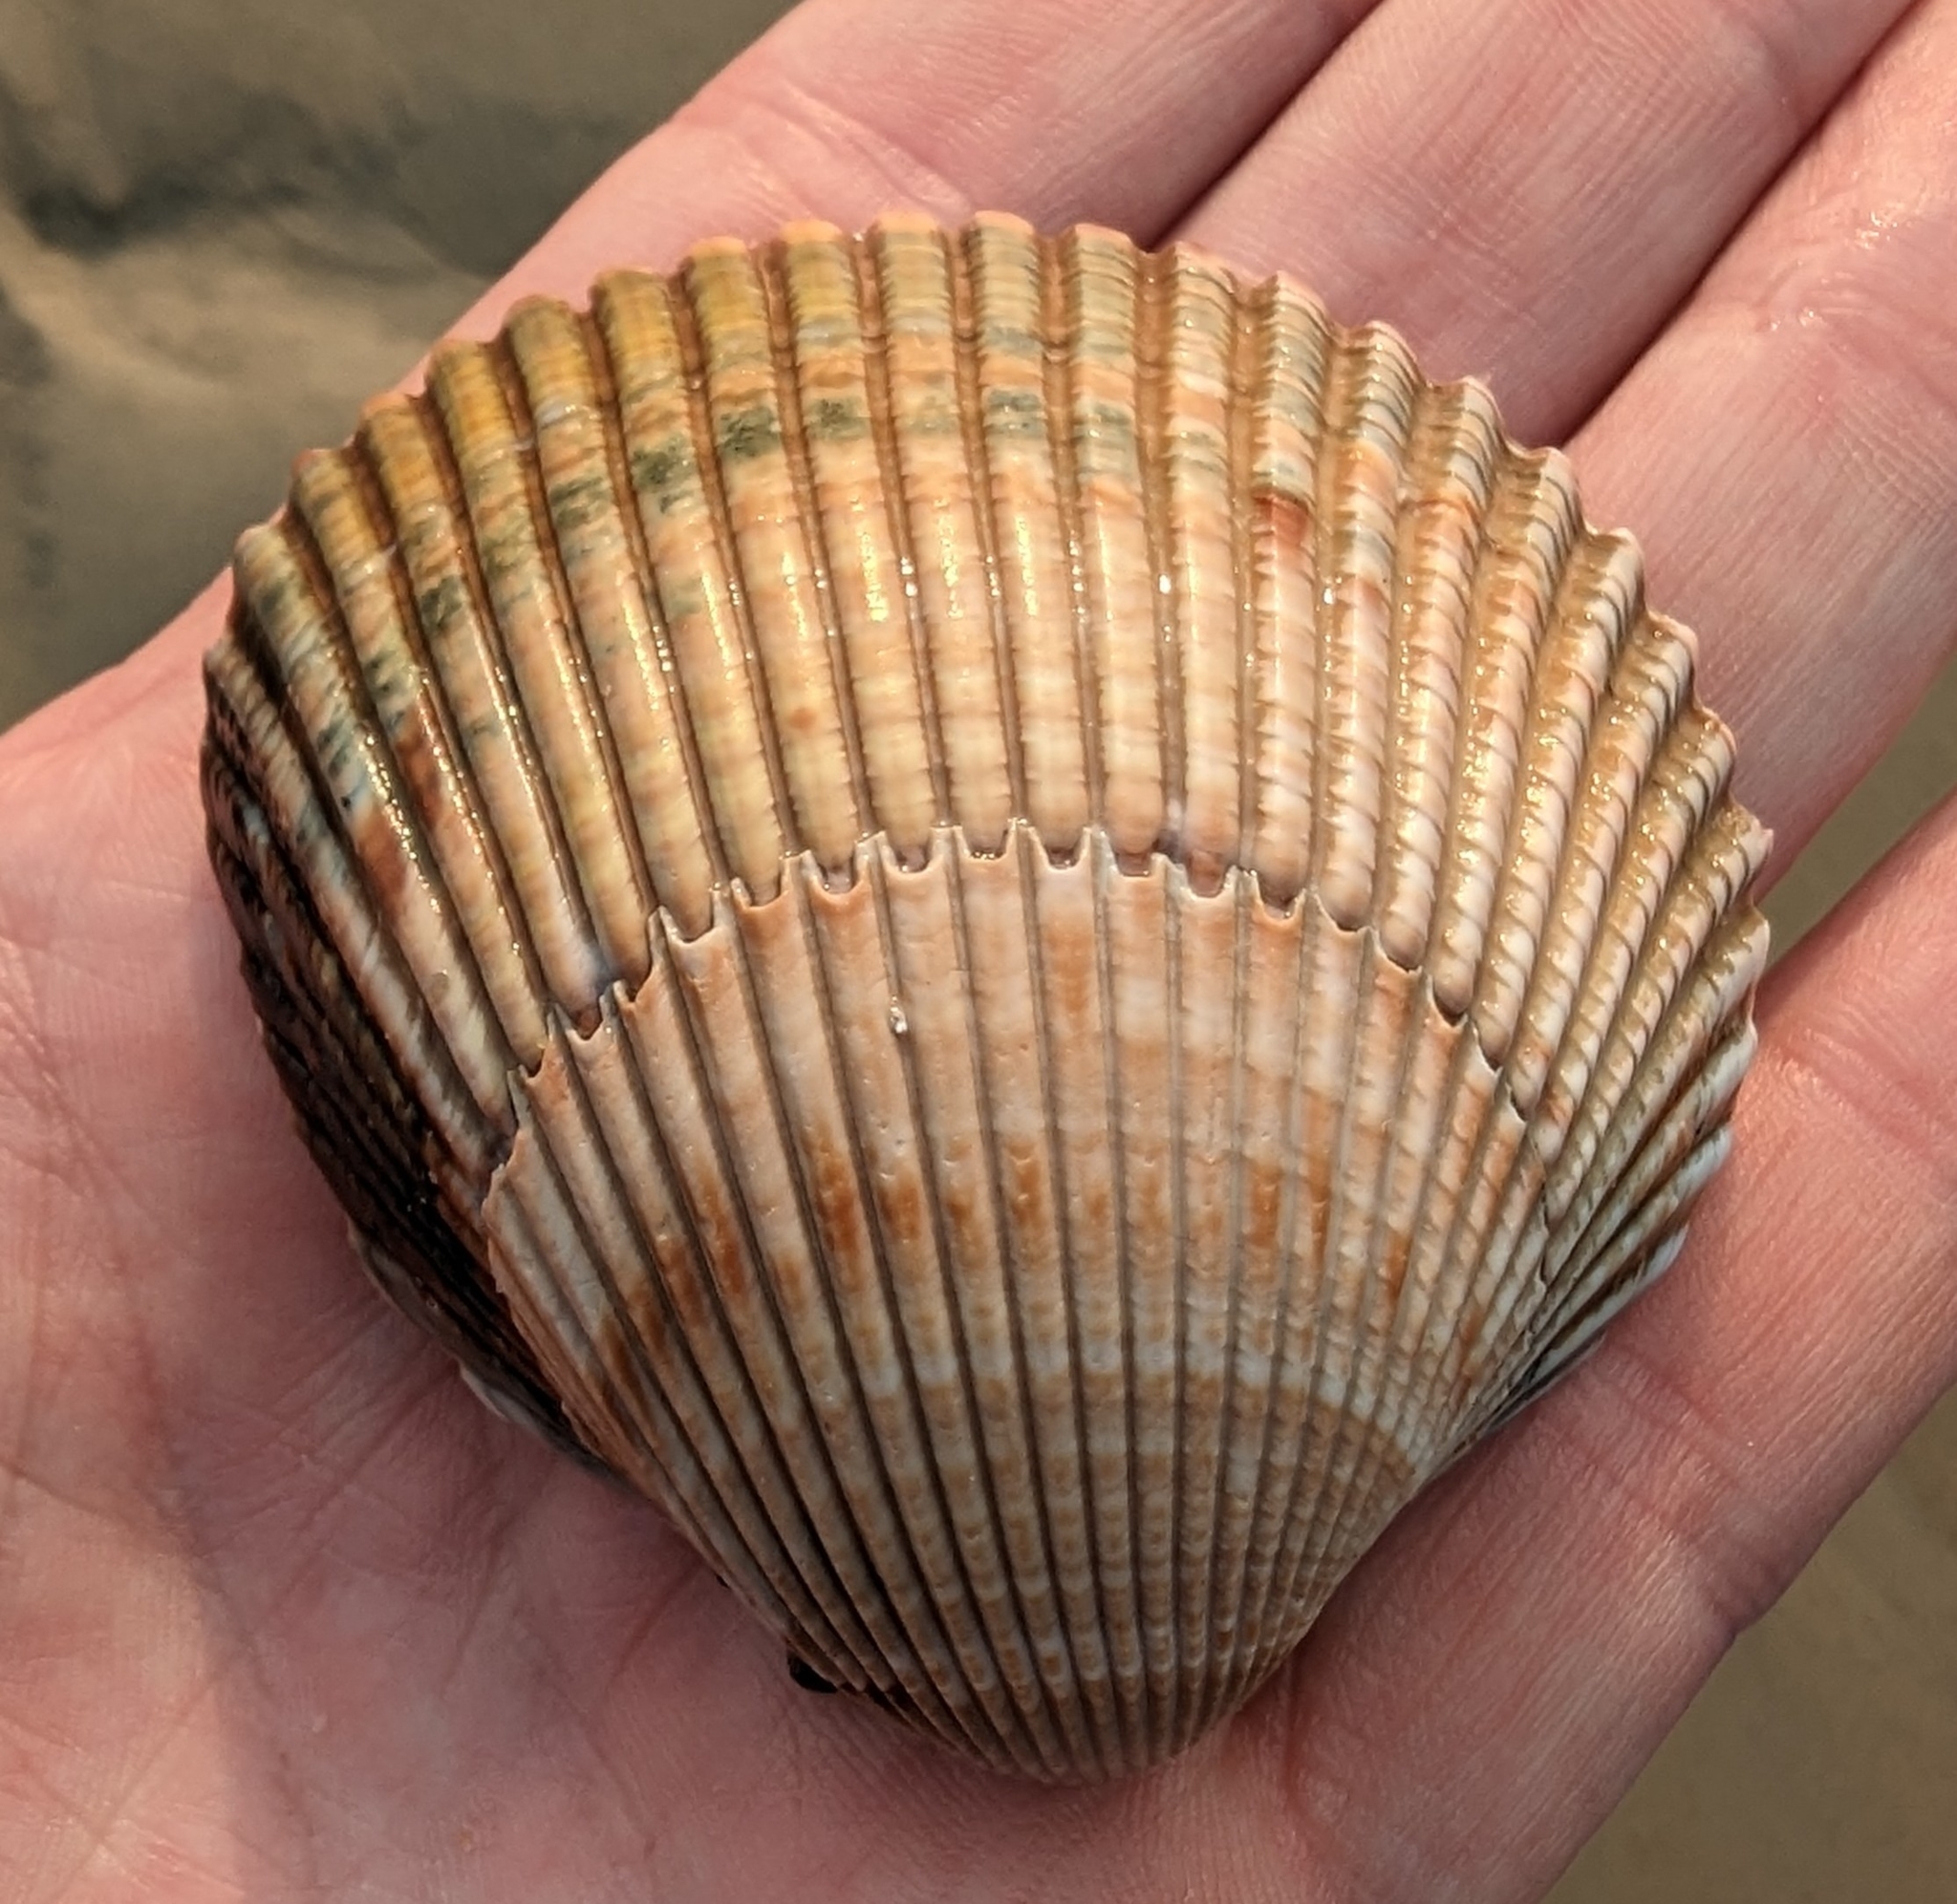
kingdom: Animalia
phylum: Mollusca
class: Bivalvia
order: Cardiida
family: Cardiidae
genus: Dinocardium
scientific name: Dinocardium robustum
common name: Atlantic giant cockle
